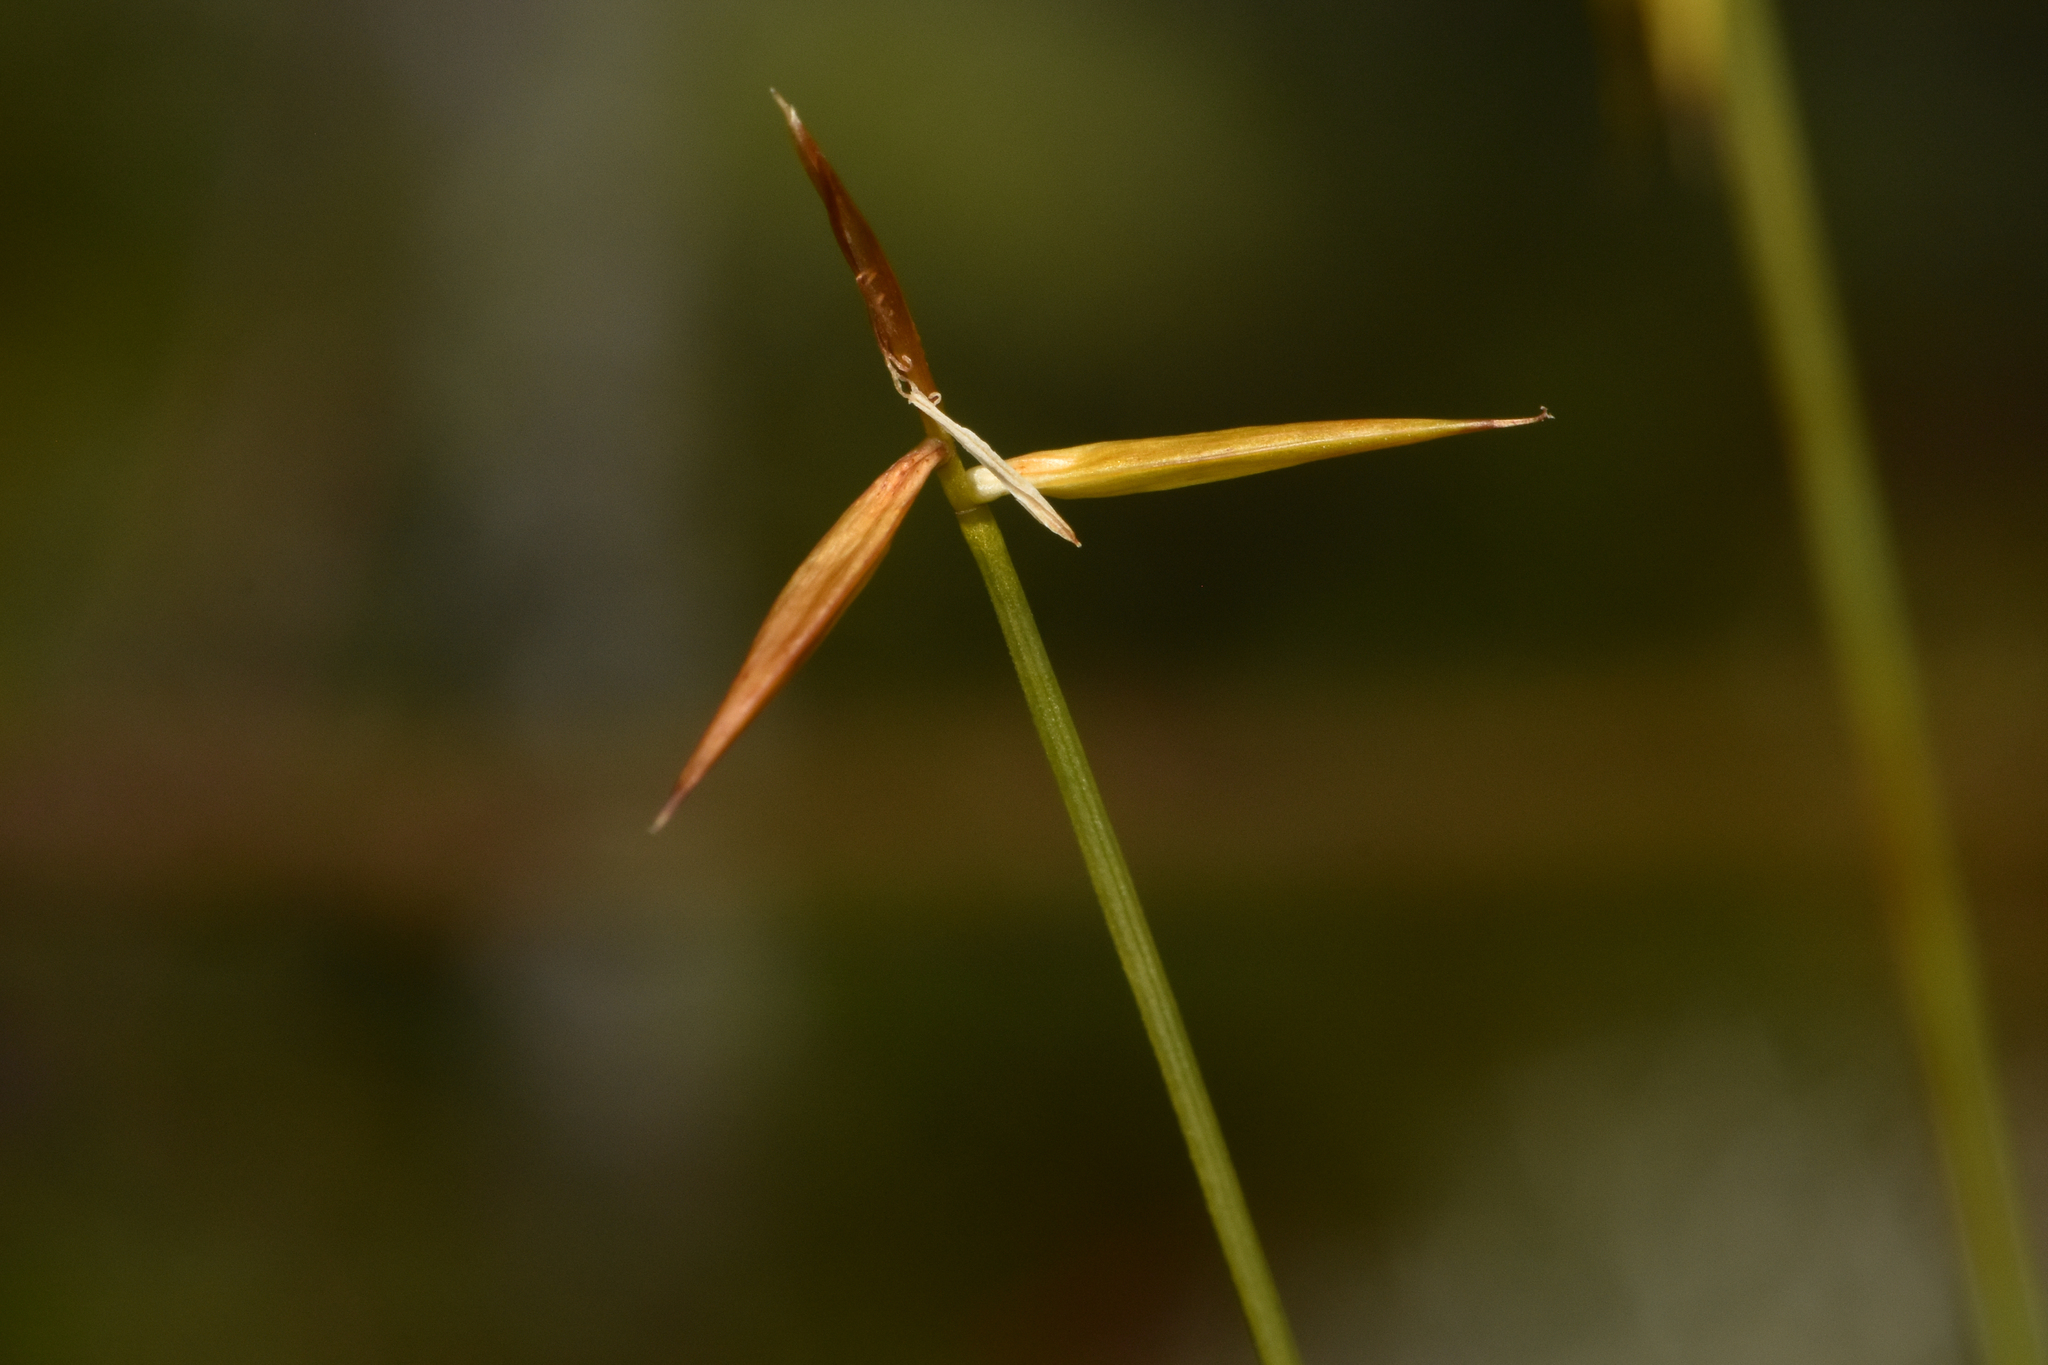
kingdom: Plantae
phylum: Tracheophyta
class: Liliopsida
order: Poales
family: Cyperaceae
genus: Carex
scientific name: Carex pauciflora
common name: Few-flowered sedge
